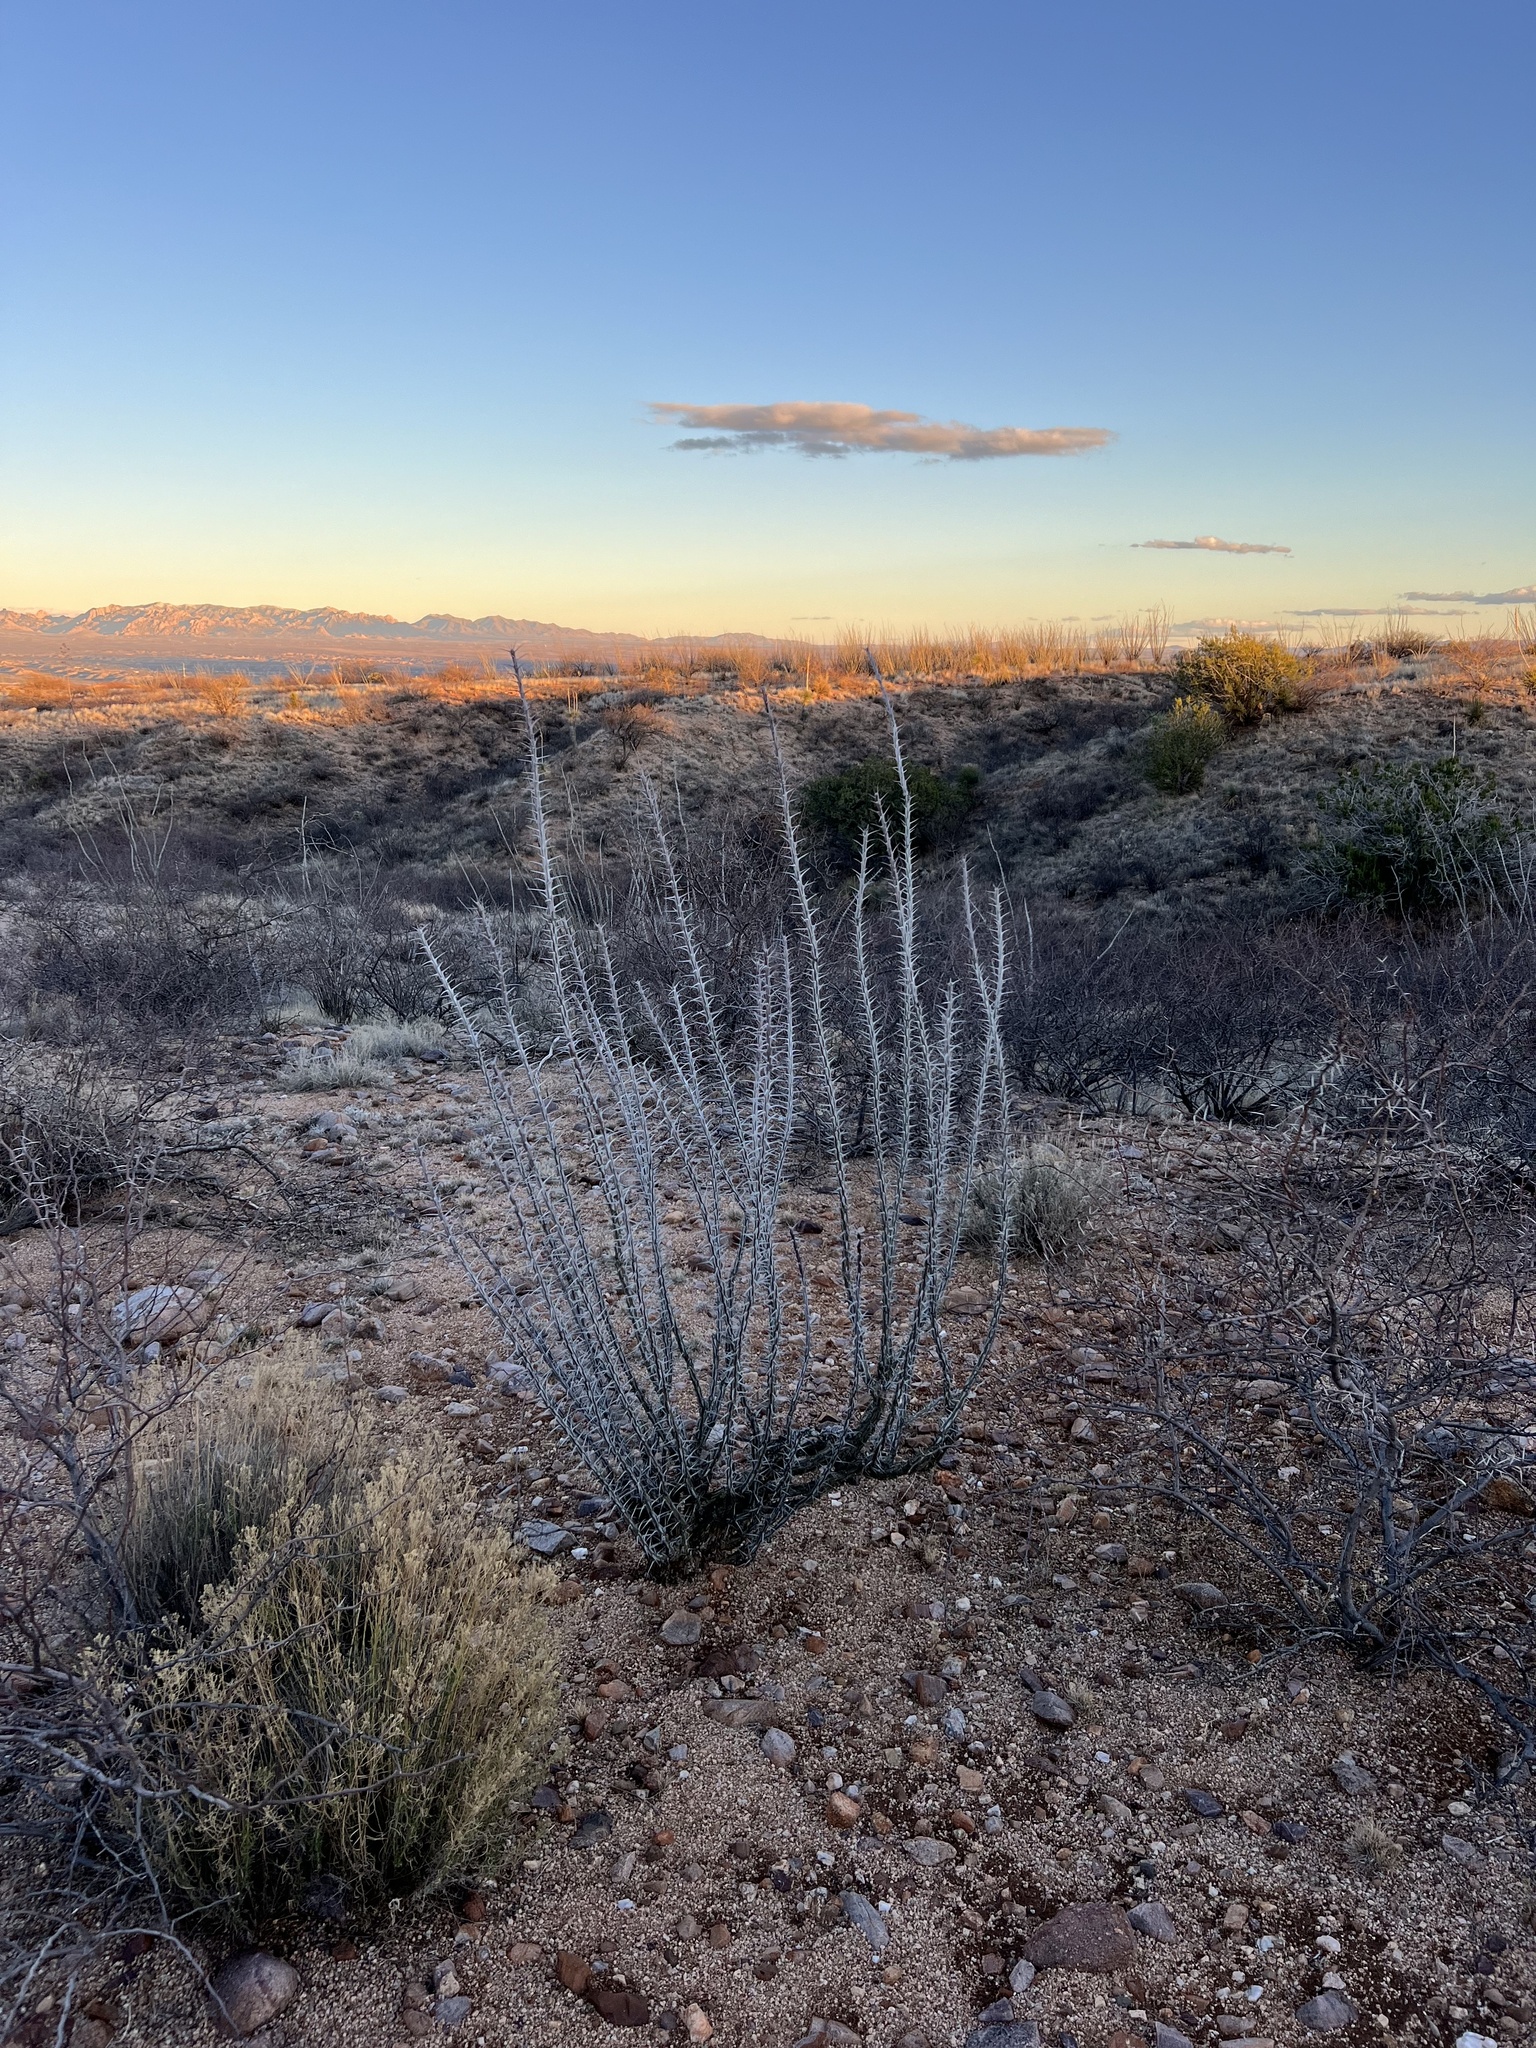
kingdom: Plantae
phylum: Tracheophyta
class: Magnoliopsida
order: Ericales
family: Fouquieriaceae
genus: Fouquieria
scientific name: Fouquieria splendens
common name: Vine-cactus
